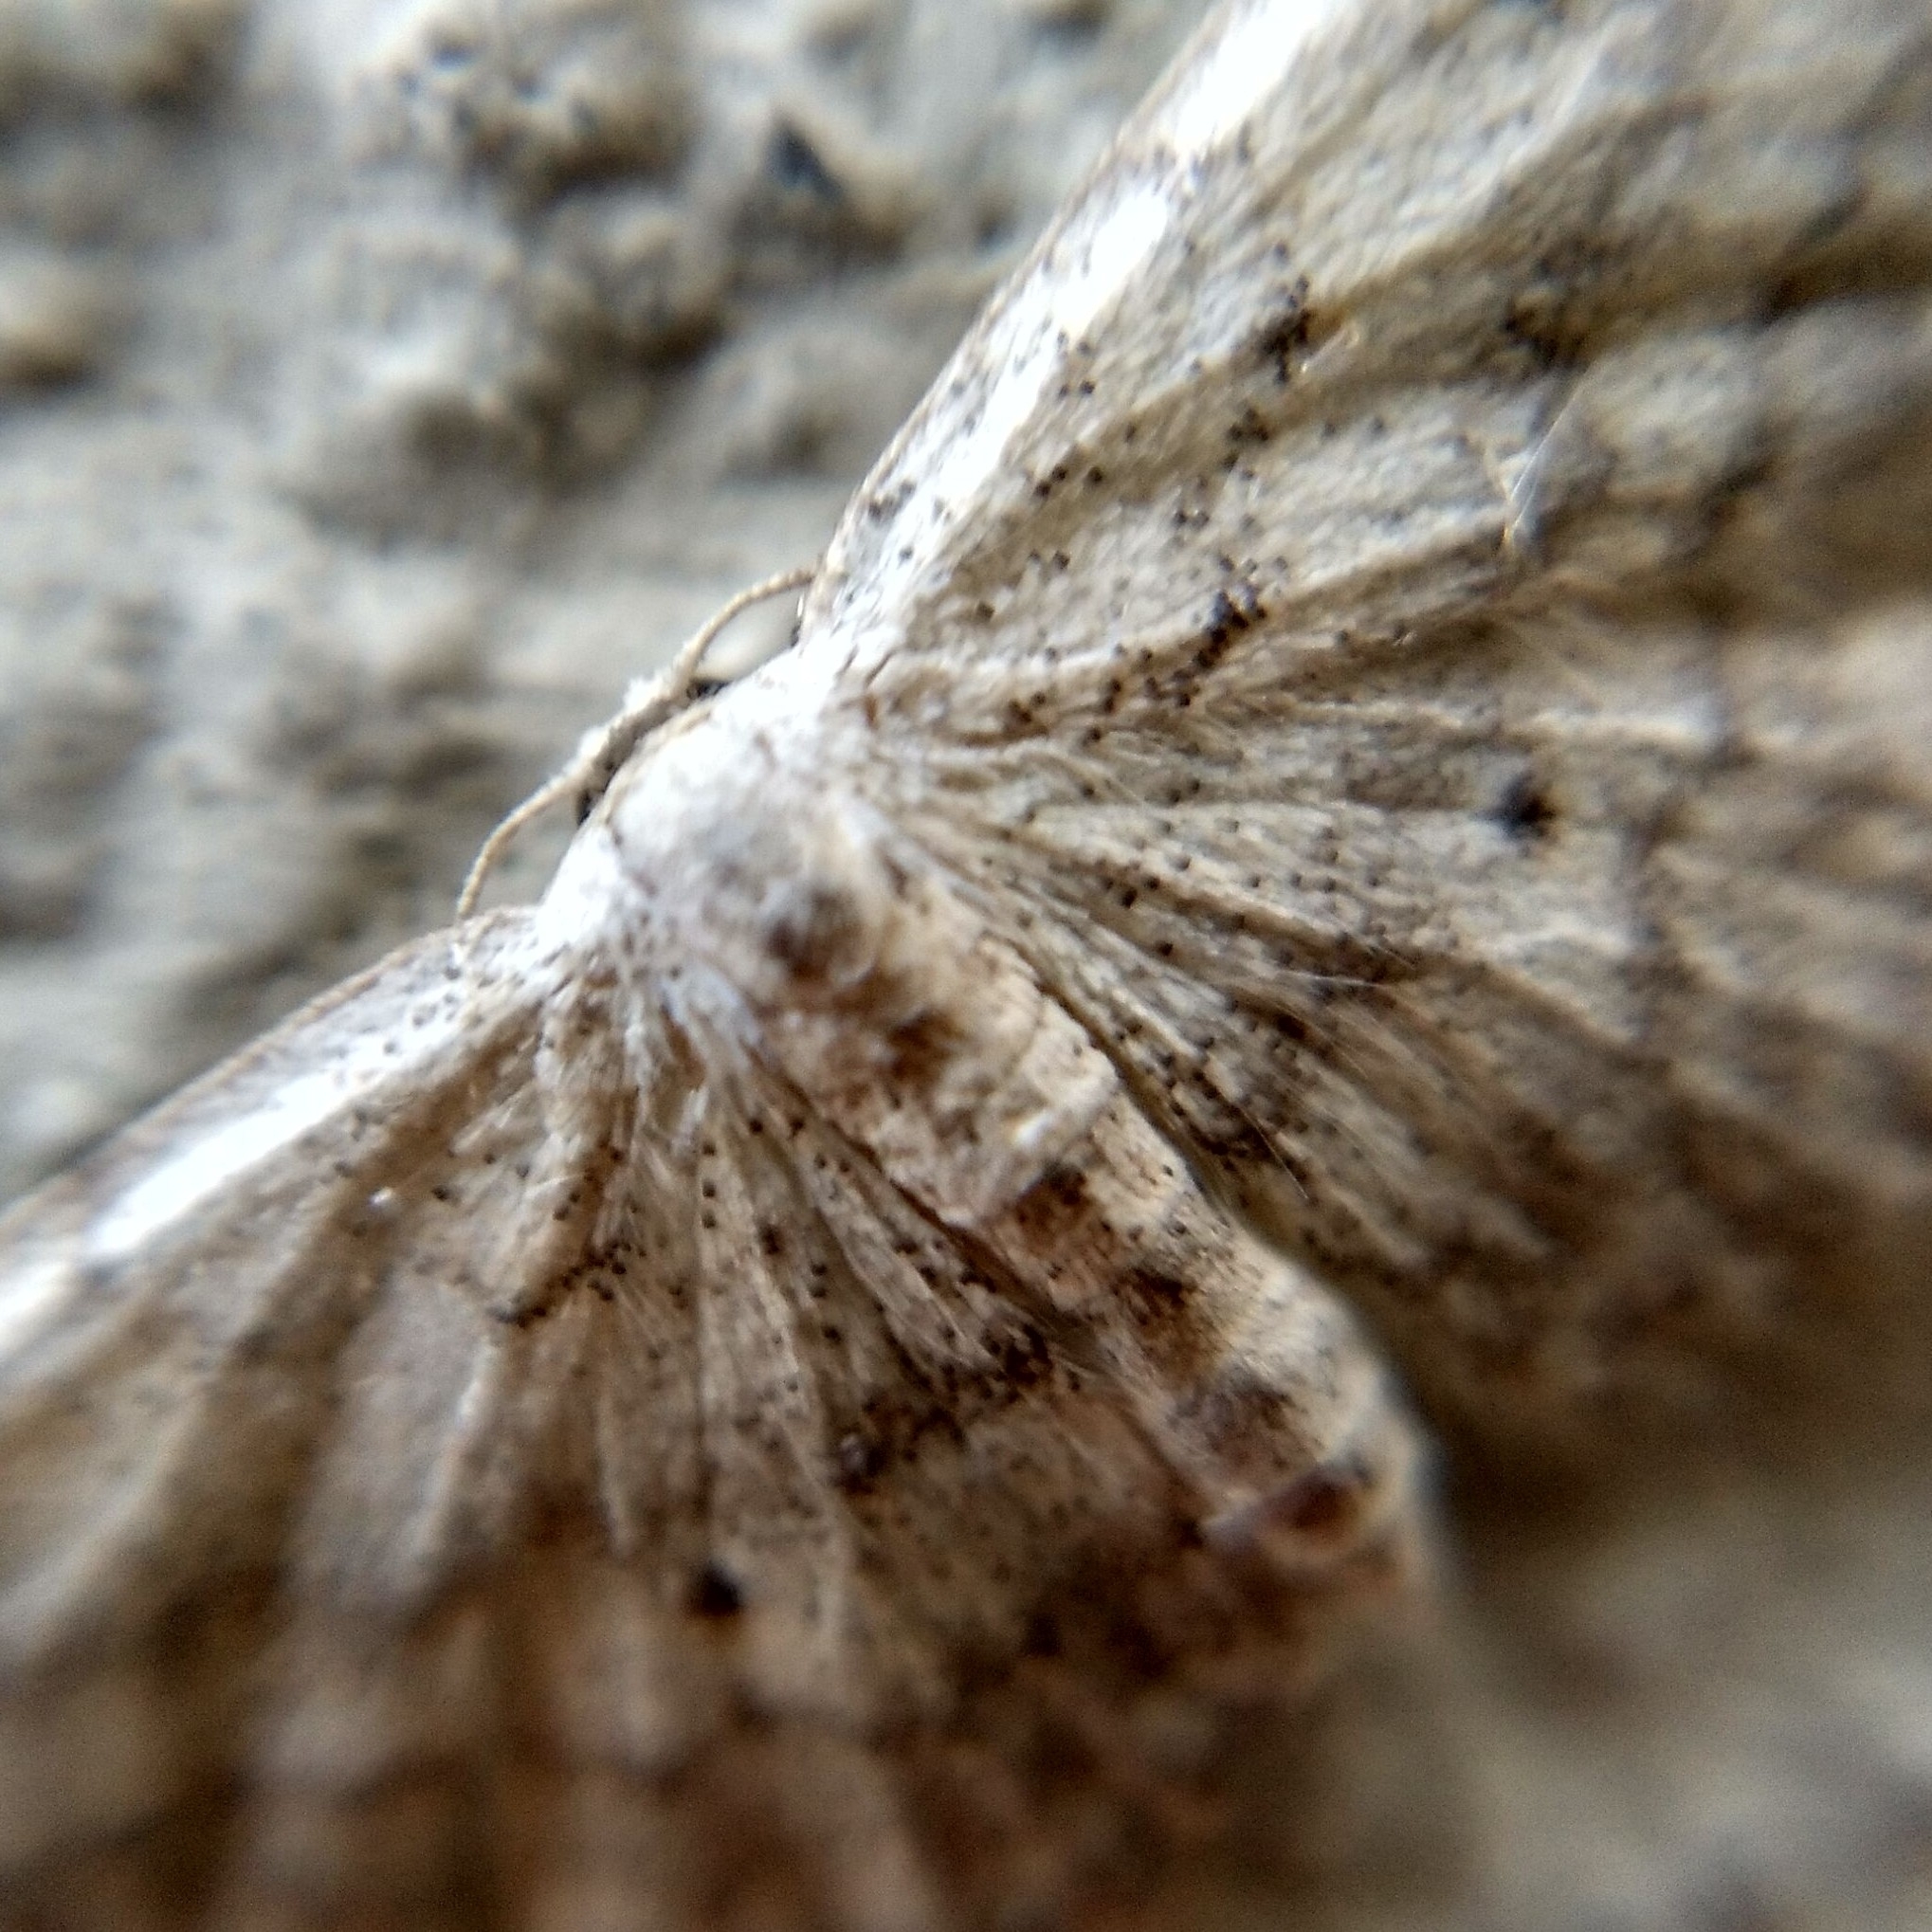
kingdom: Animalia
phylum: Arthropoda
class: Insecta
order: Lepidoptera
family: Geometridae
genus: Idaea
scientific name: Idaea seriata
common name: Small dusty wave
